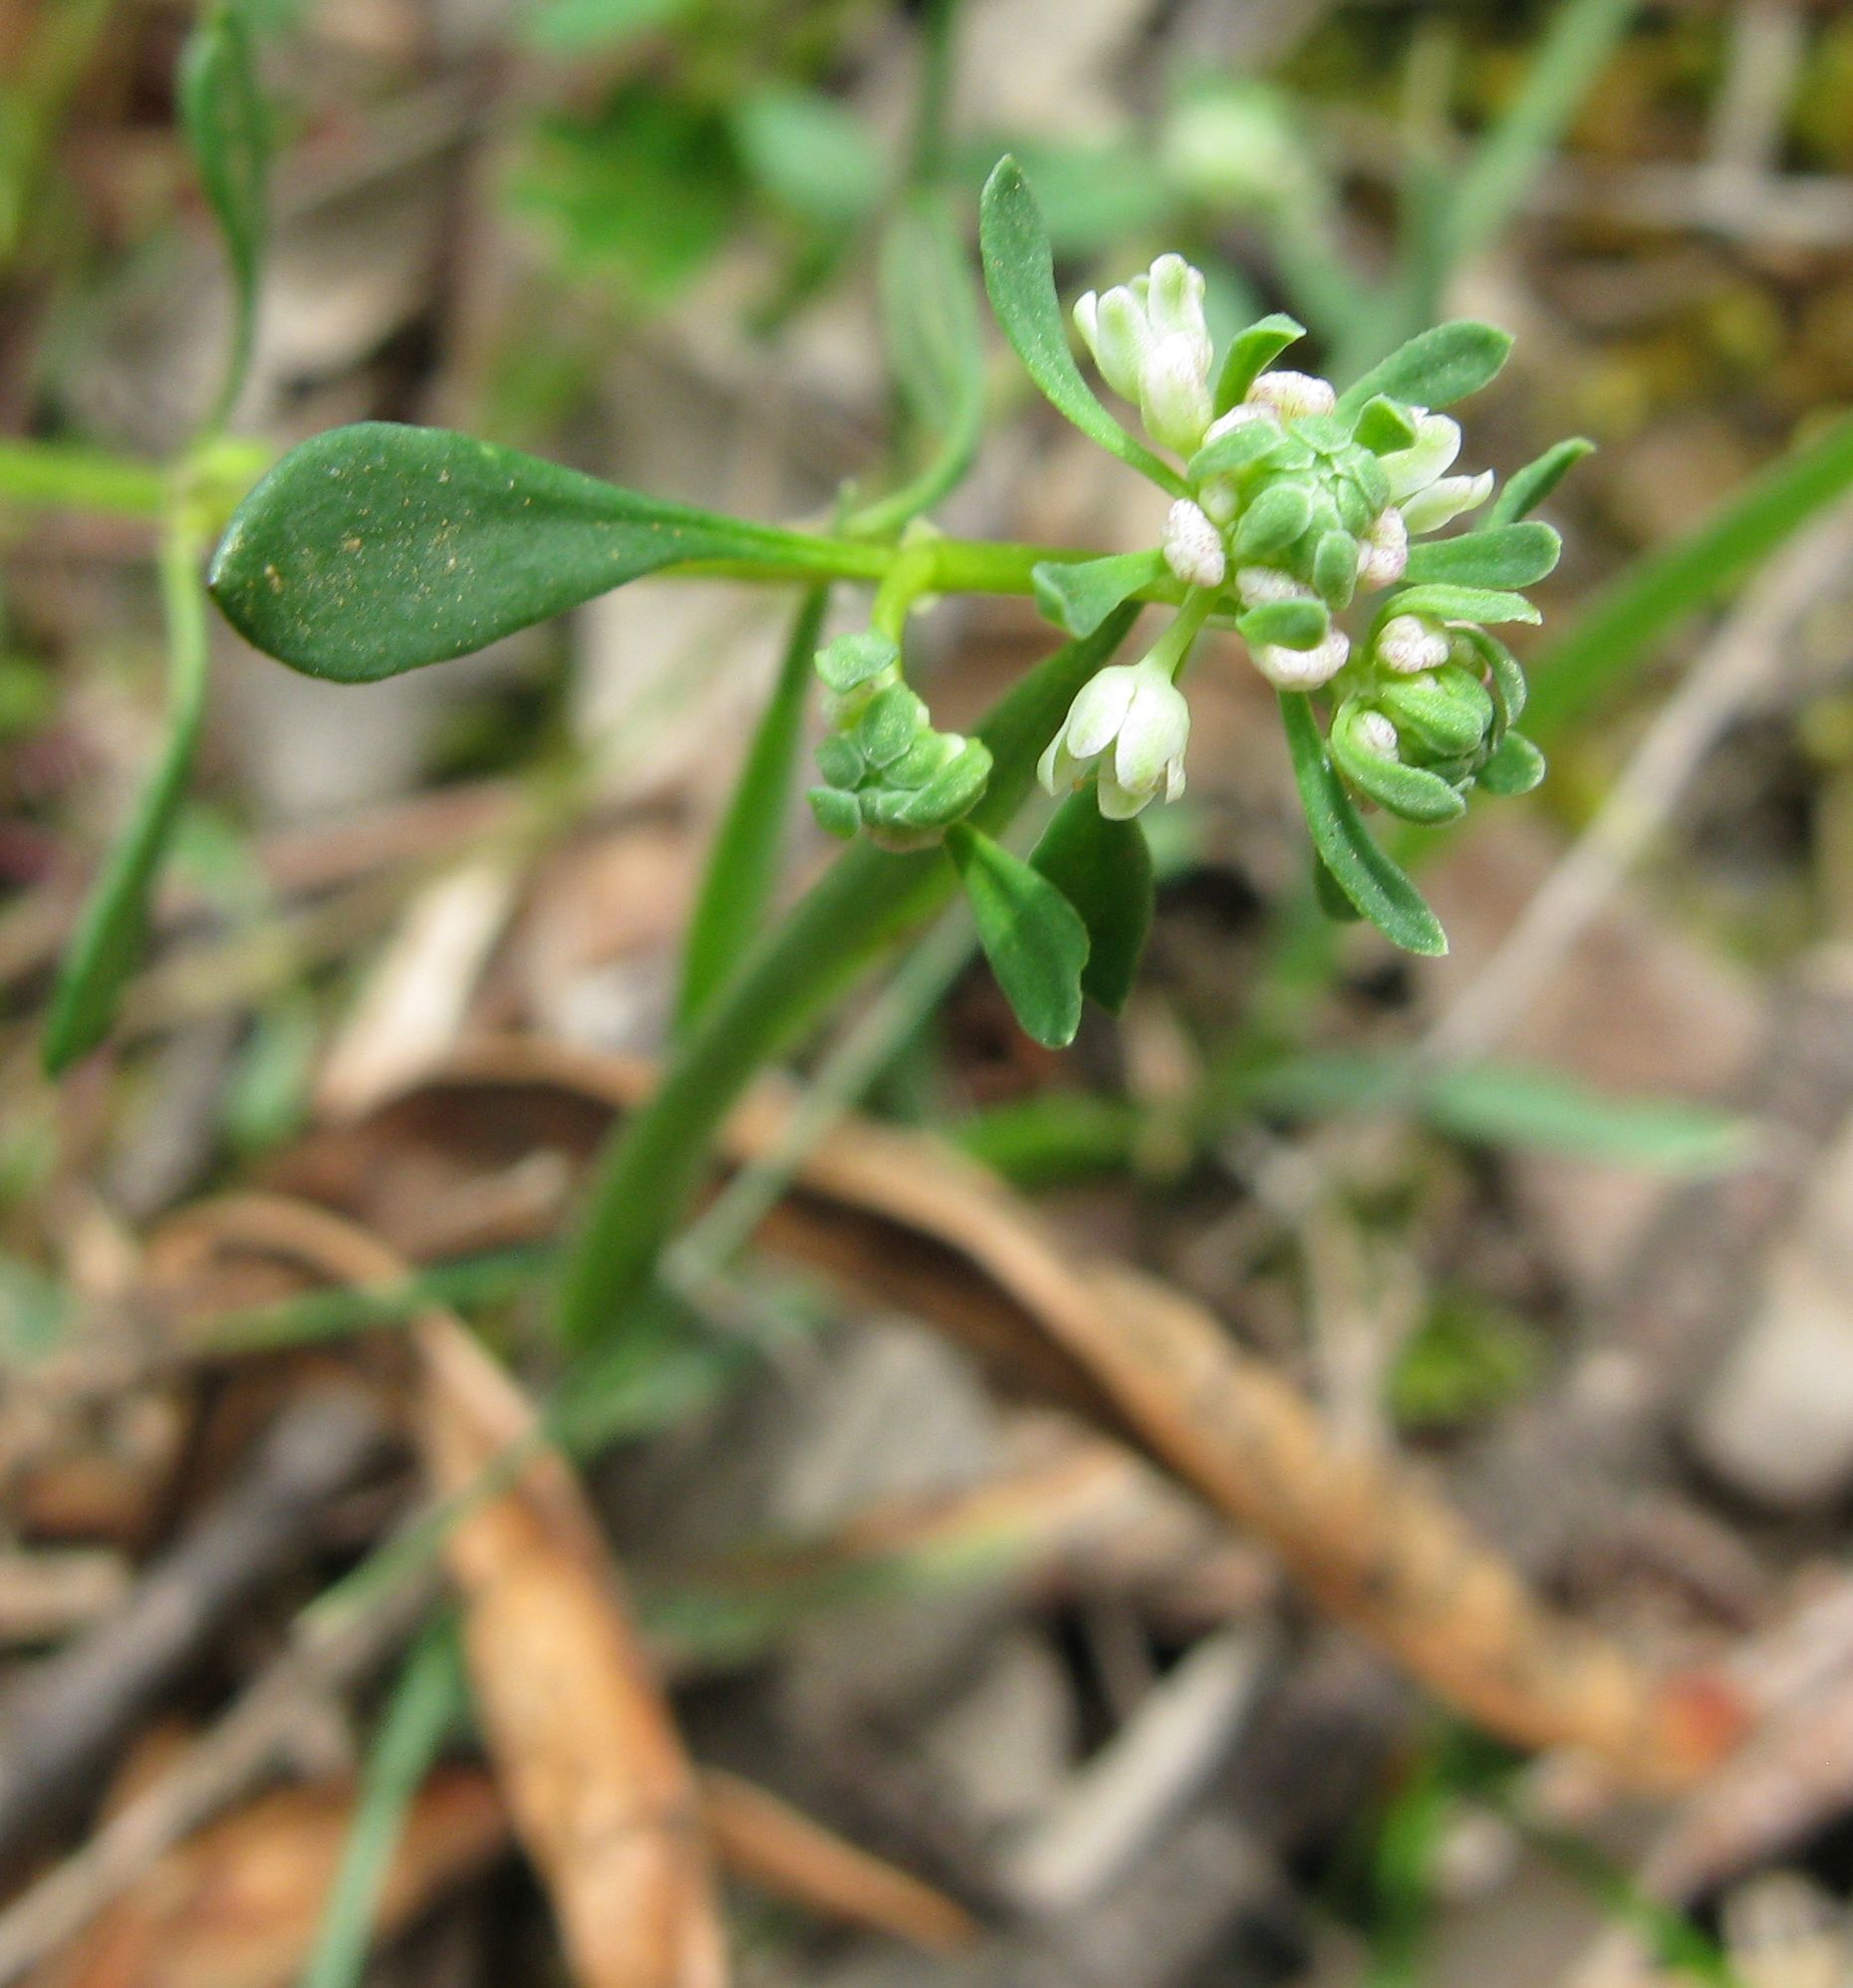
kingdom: Plantae
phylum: Tracheophyta
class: Magnoliopsida
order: Malpighiales
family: Phyllanthaceae
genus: Poranthera
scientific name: Poranthera microphylla
